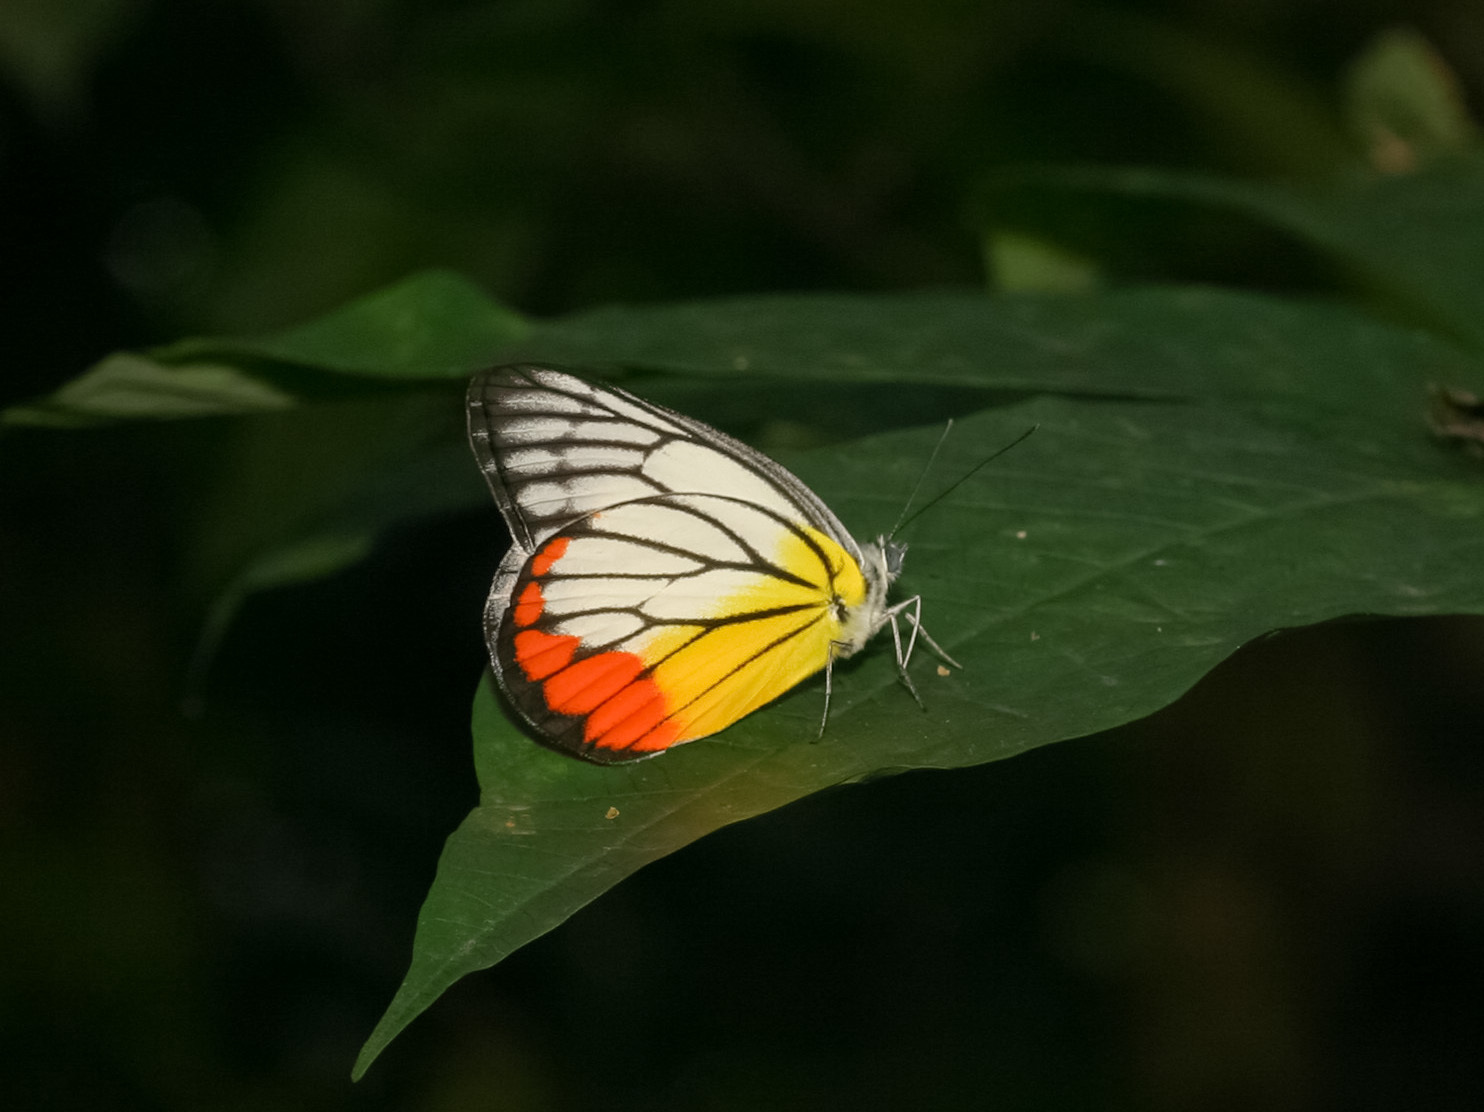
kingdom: Animalia
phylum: Arthropoda
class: Insecta
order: Lepidoptera
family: Pieridae
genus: Delias
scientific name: Delias hyparete
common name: Painted jezebel
